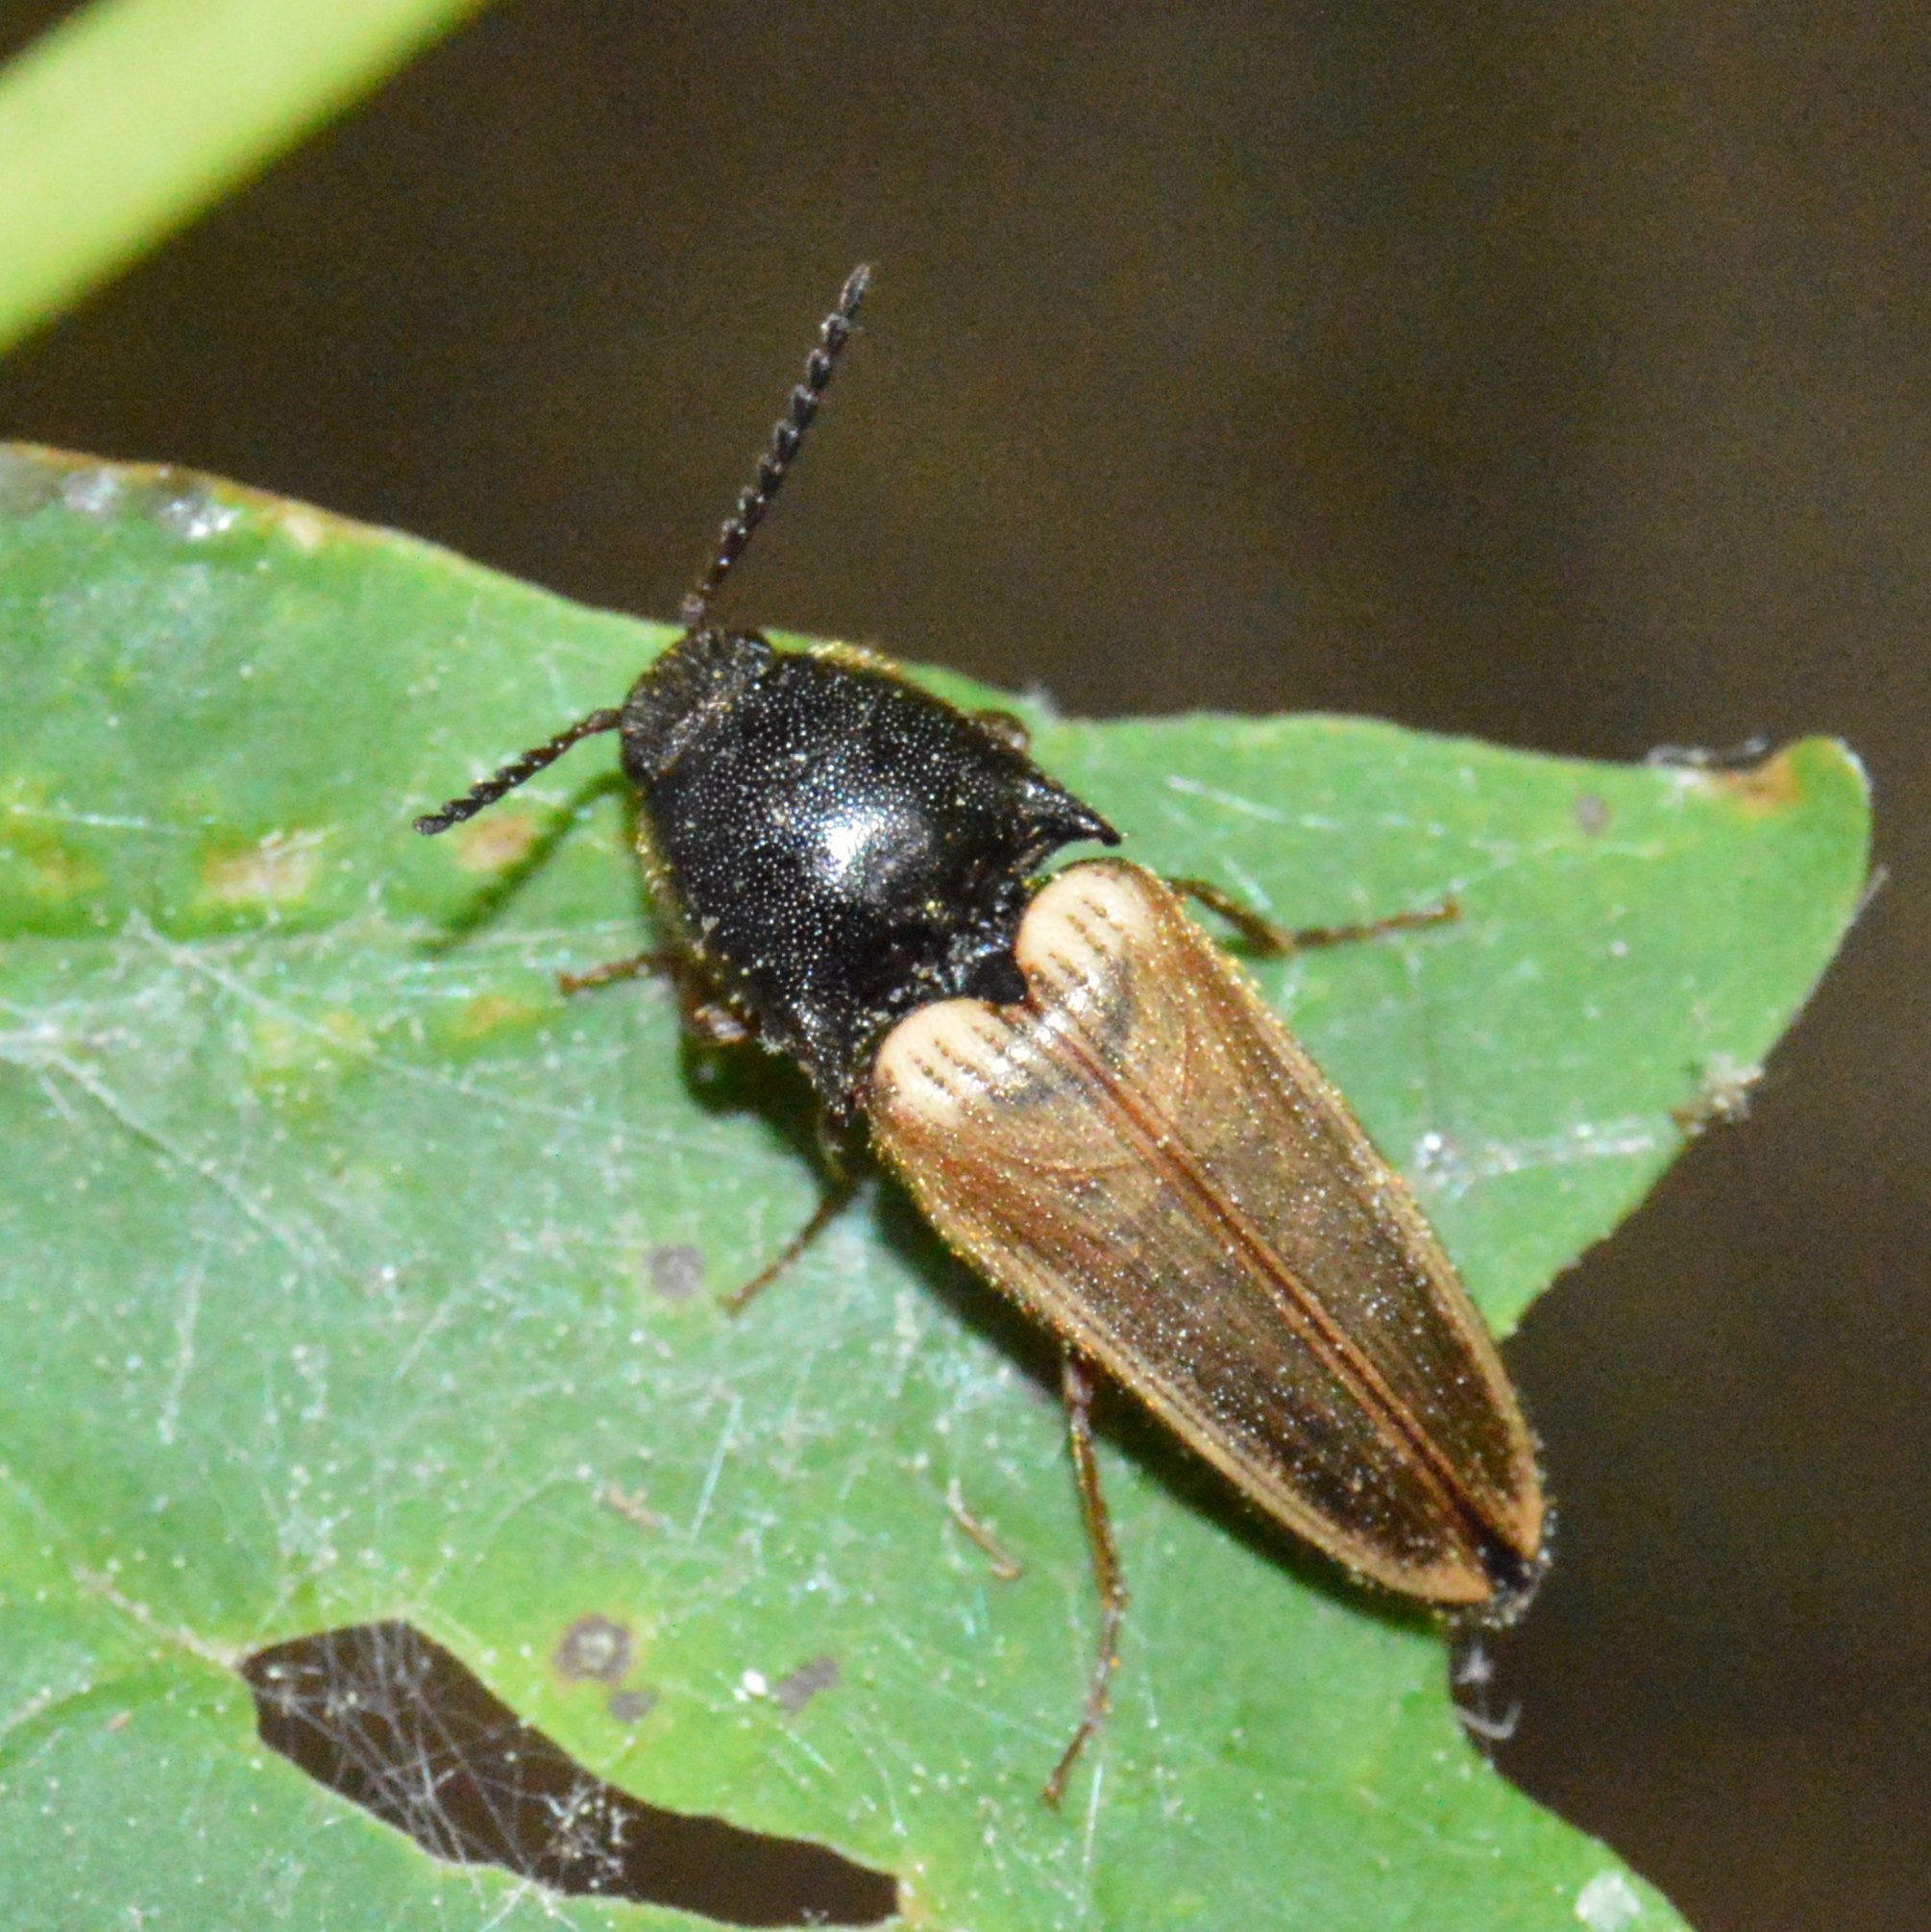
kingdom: Animalia
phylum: Arthropoda
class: Insecta
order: Coleoptera
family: Elateridae
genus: Ampedus
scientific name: Ampedus nigricollis
